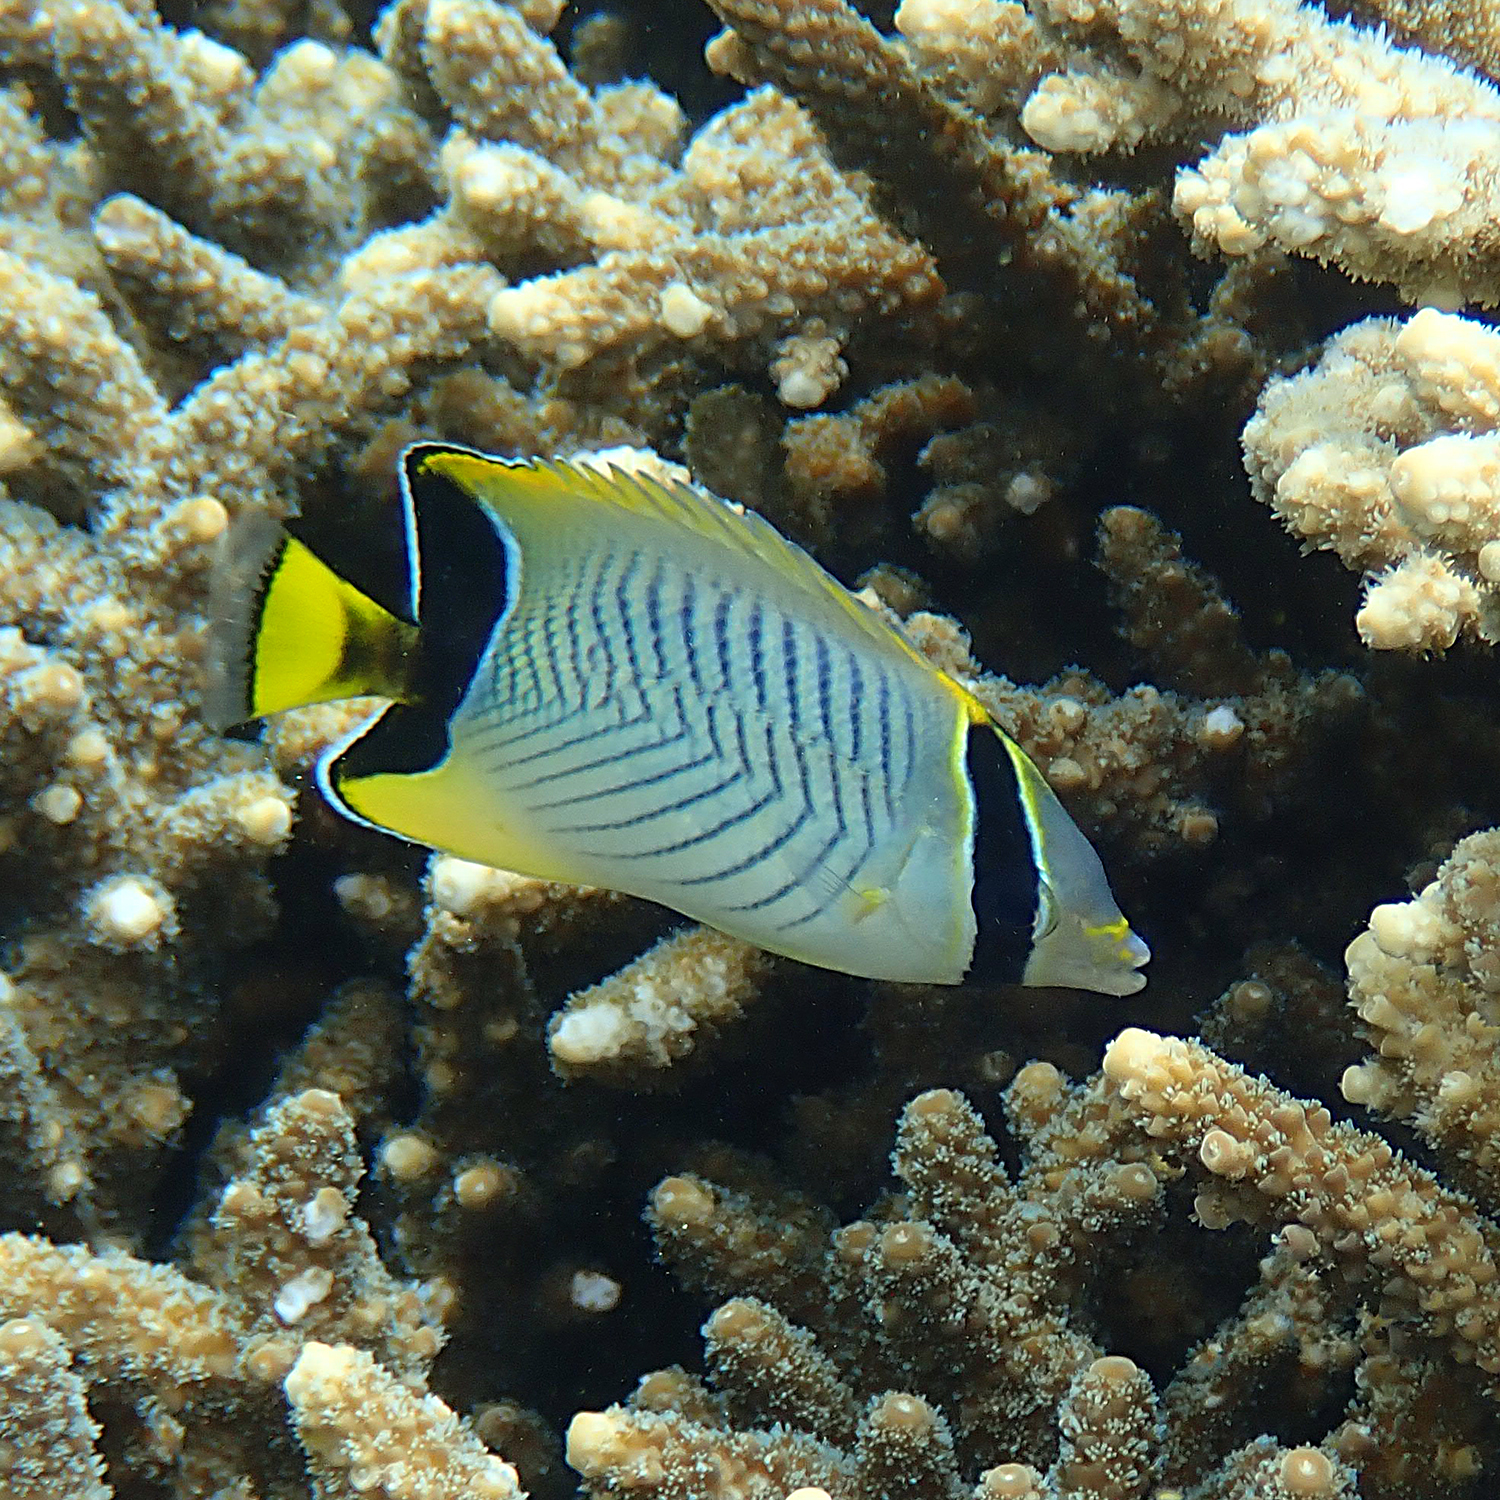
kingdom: Animalia
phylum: Chordata
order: Perciformes
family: Chaetodontidae
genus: Chaetodon
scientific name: Chaetodon trifascialis
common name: Chevroned butterflyfish
